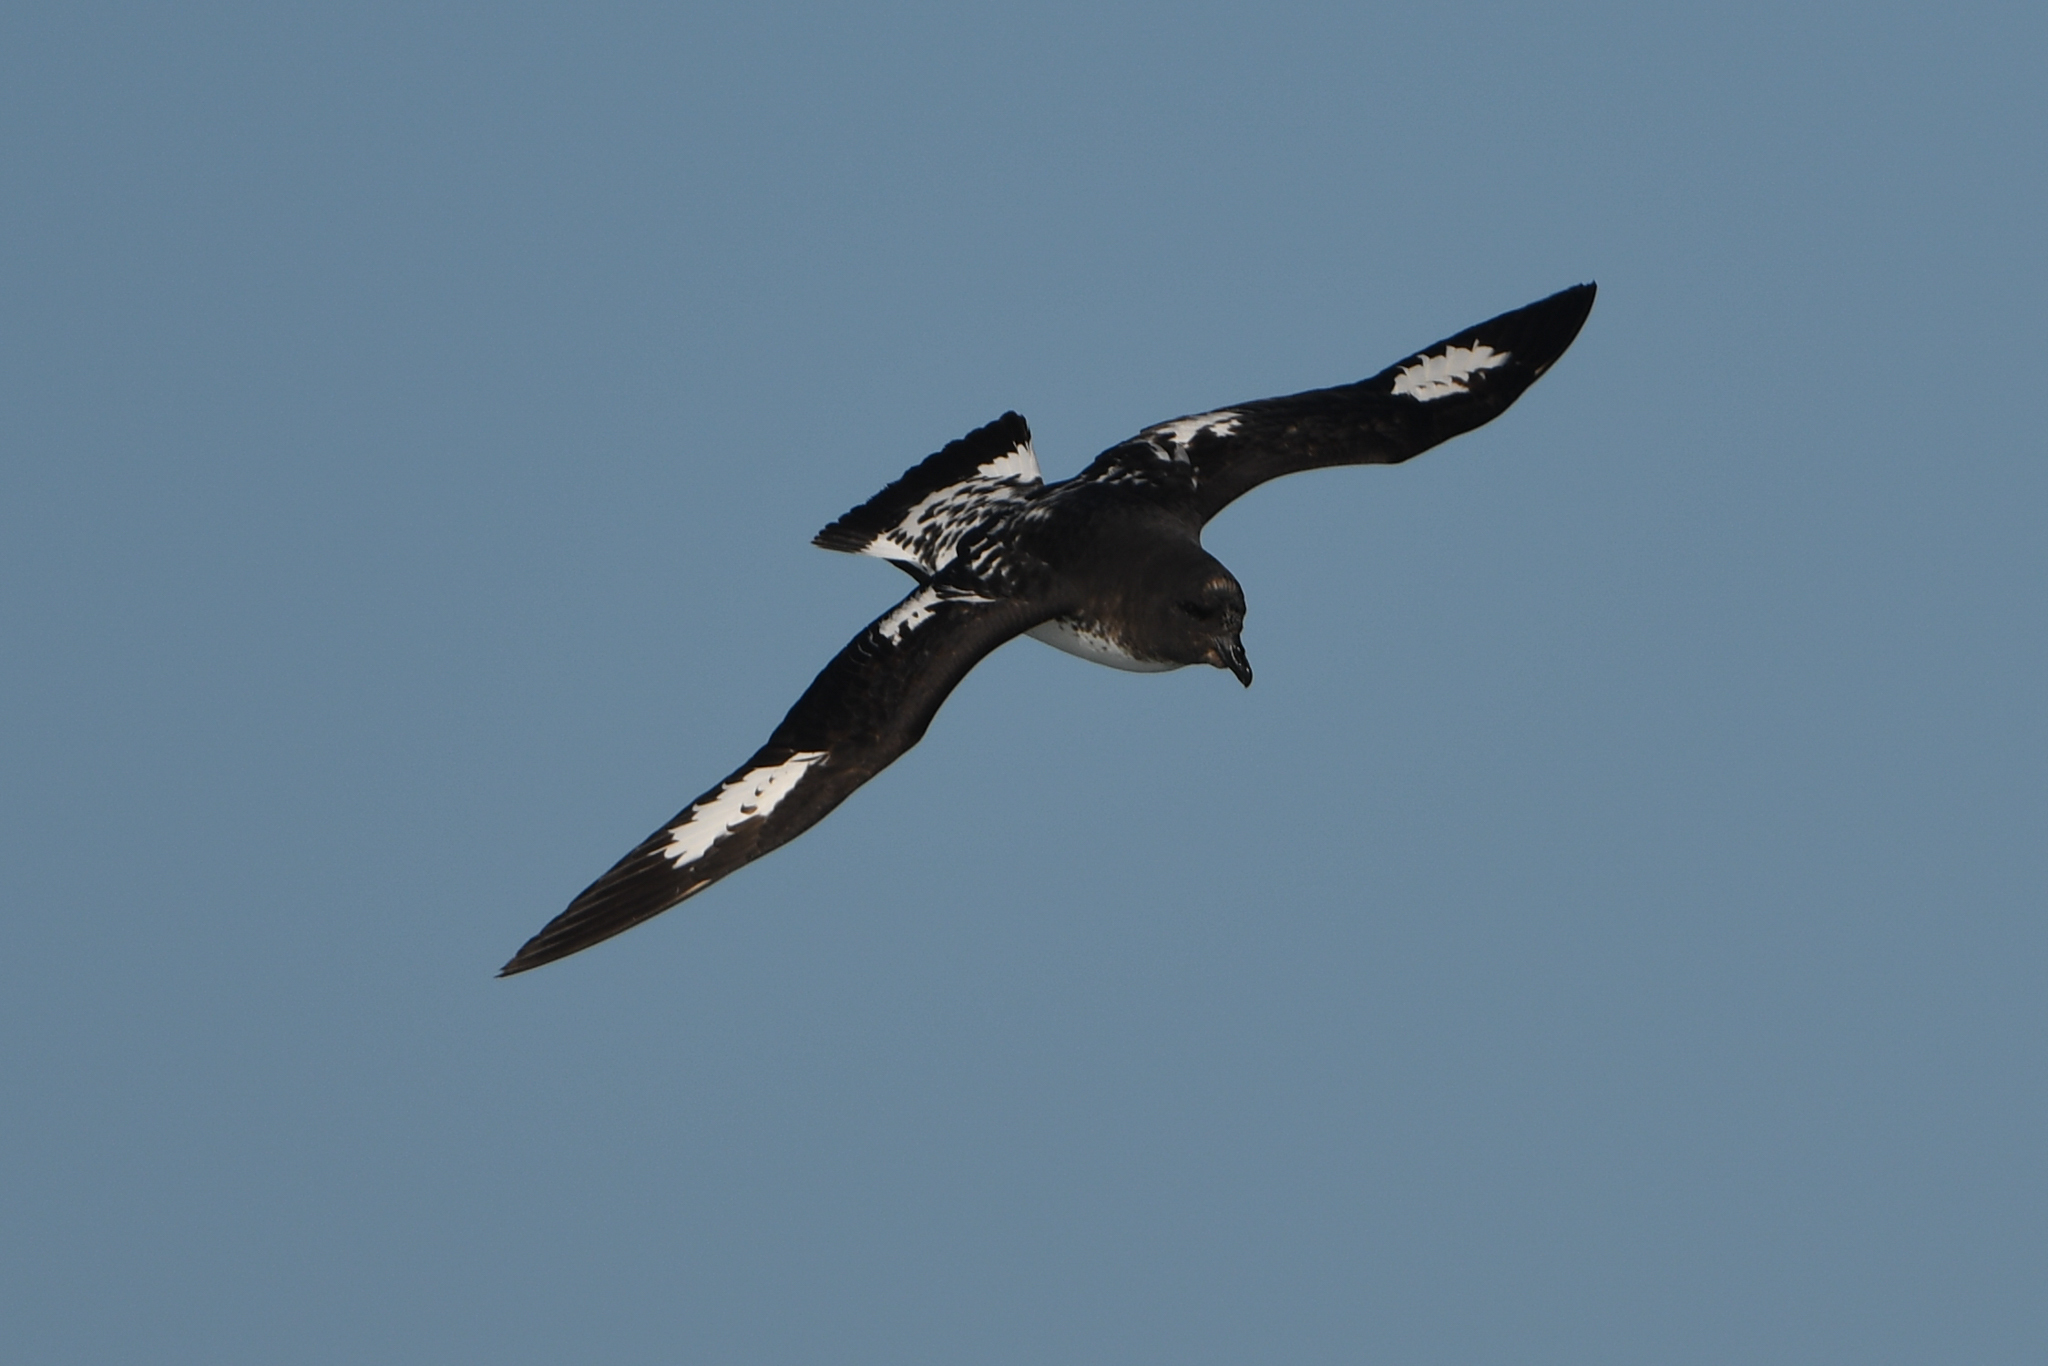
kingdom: Animalia
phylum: Chordata
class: Aves
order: Procellariiformes
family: Procellariidae
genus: Daption
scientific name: Daption capense
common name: Cape petrel
